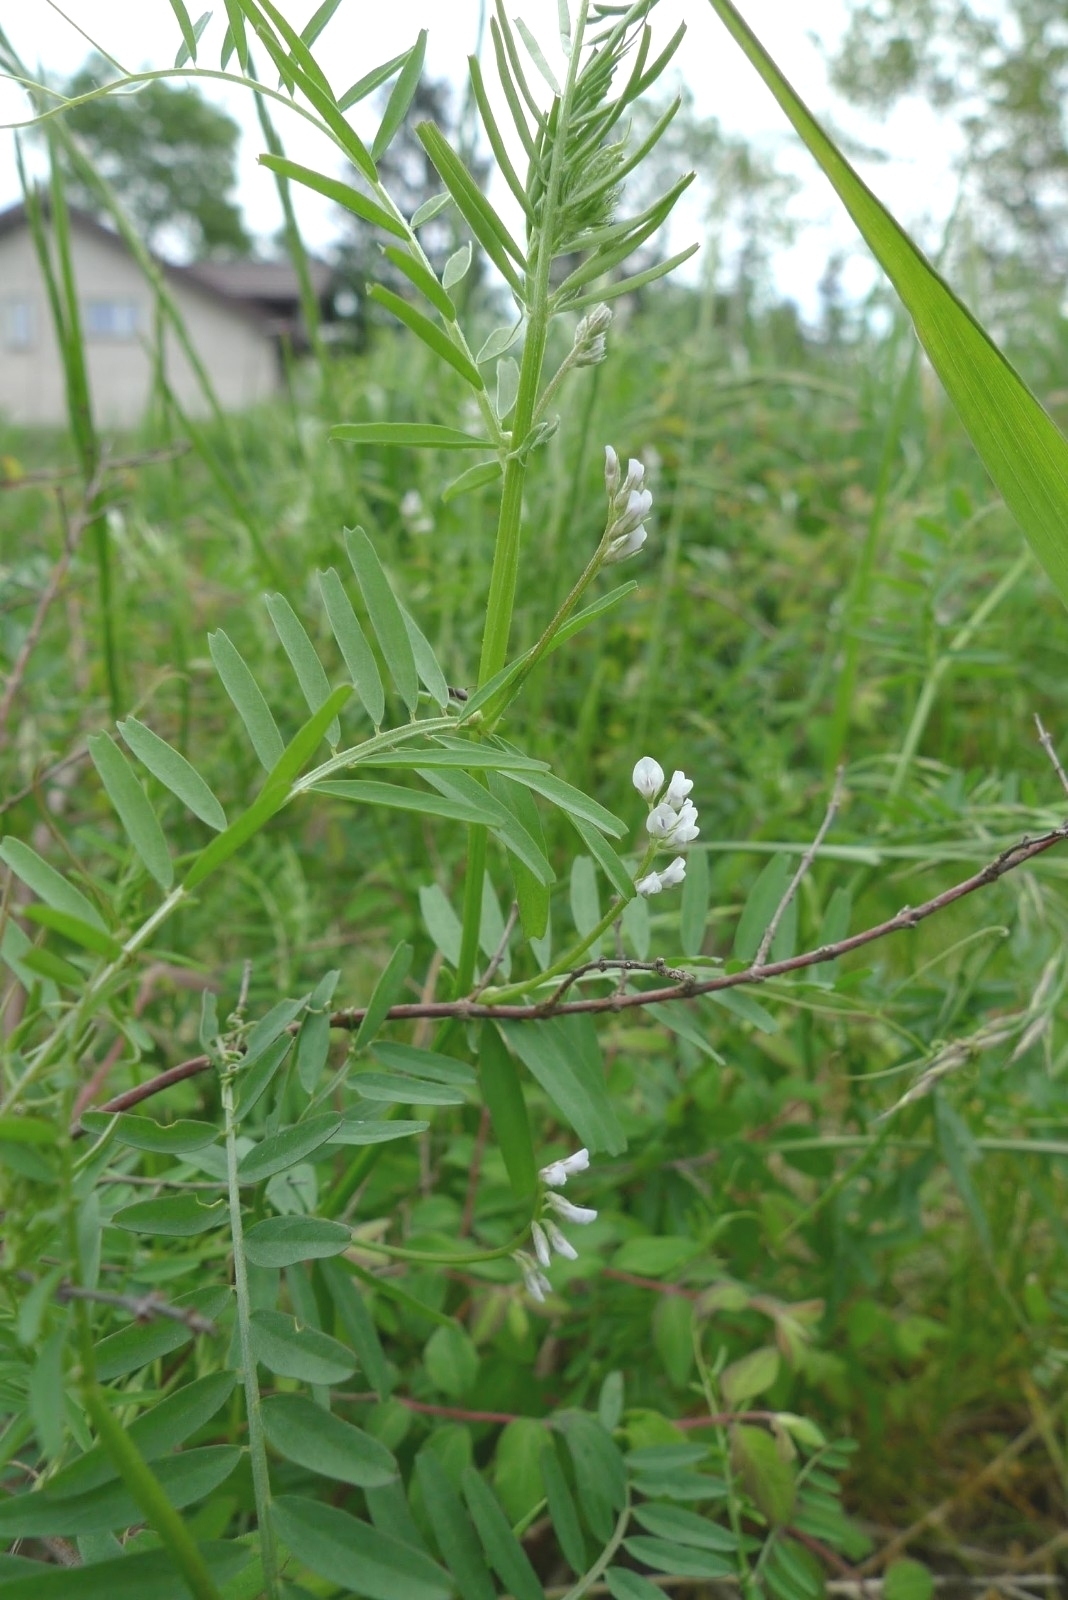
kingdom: Plantae
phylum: Tracheophyta
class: Magnoliopsida
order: Fabales
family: Fabaceae
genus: Vicia
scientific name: Vicia hirsuta
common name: Tiny vetch
